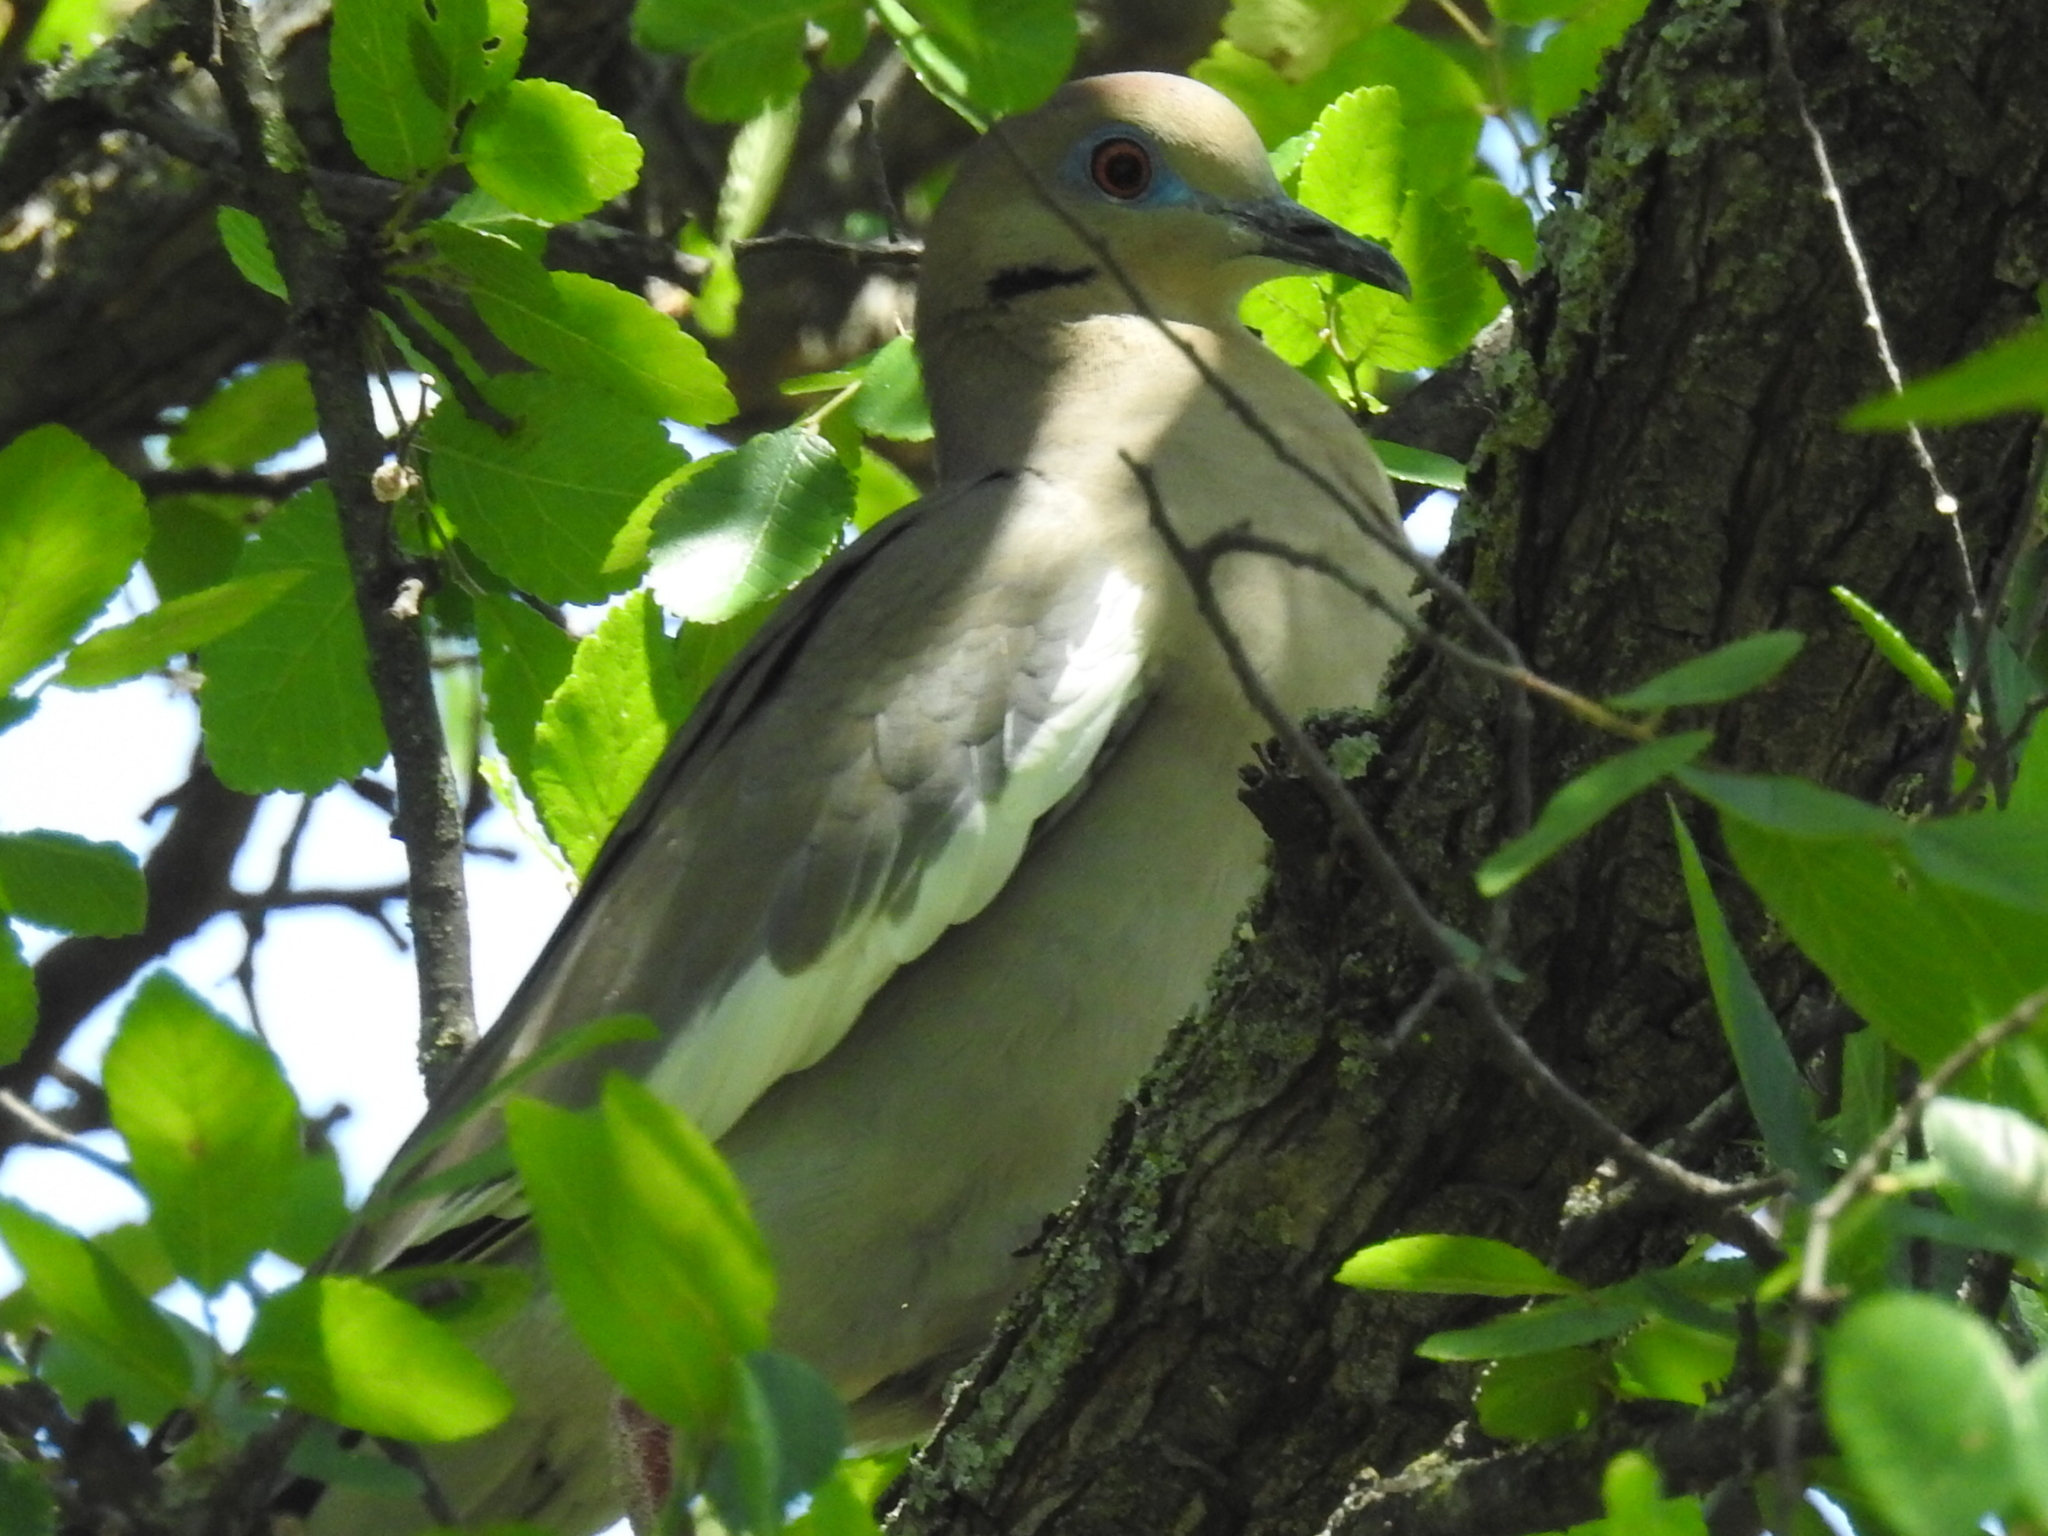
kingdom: Animalia
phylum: Chordata
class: Aves
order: Columbiformes
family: Columbidae
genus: Zenaida
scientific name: Zenaida asiatica
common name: White-winged dove
